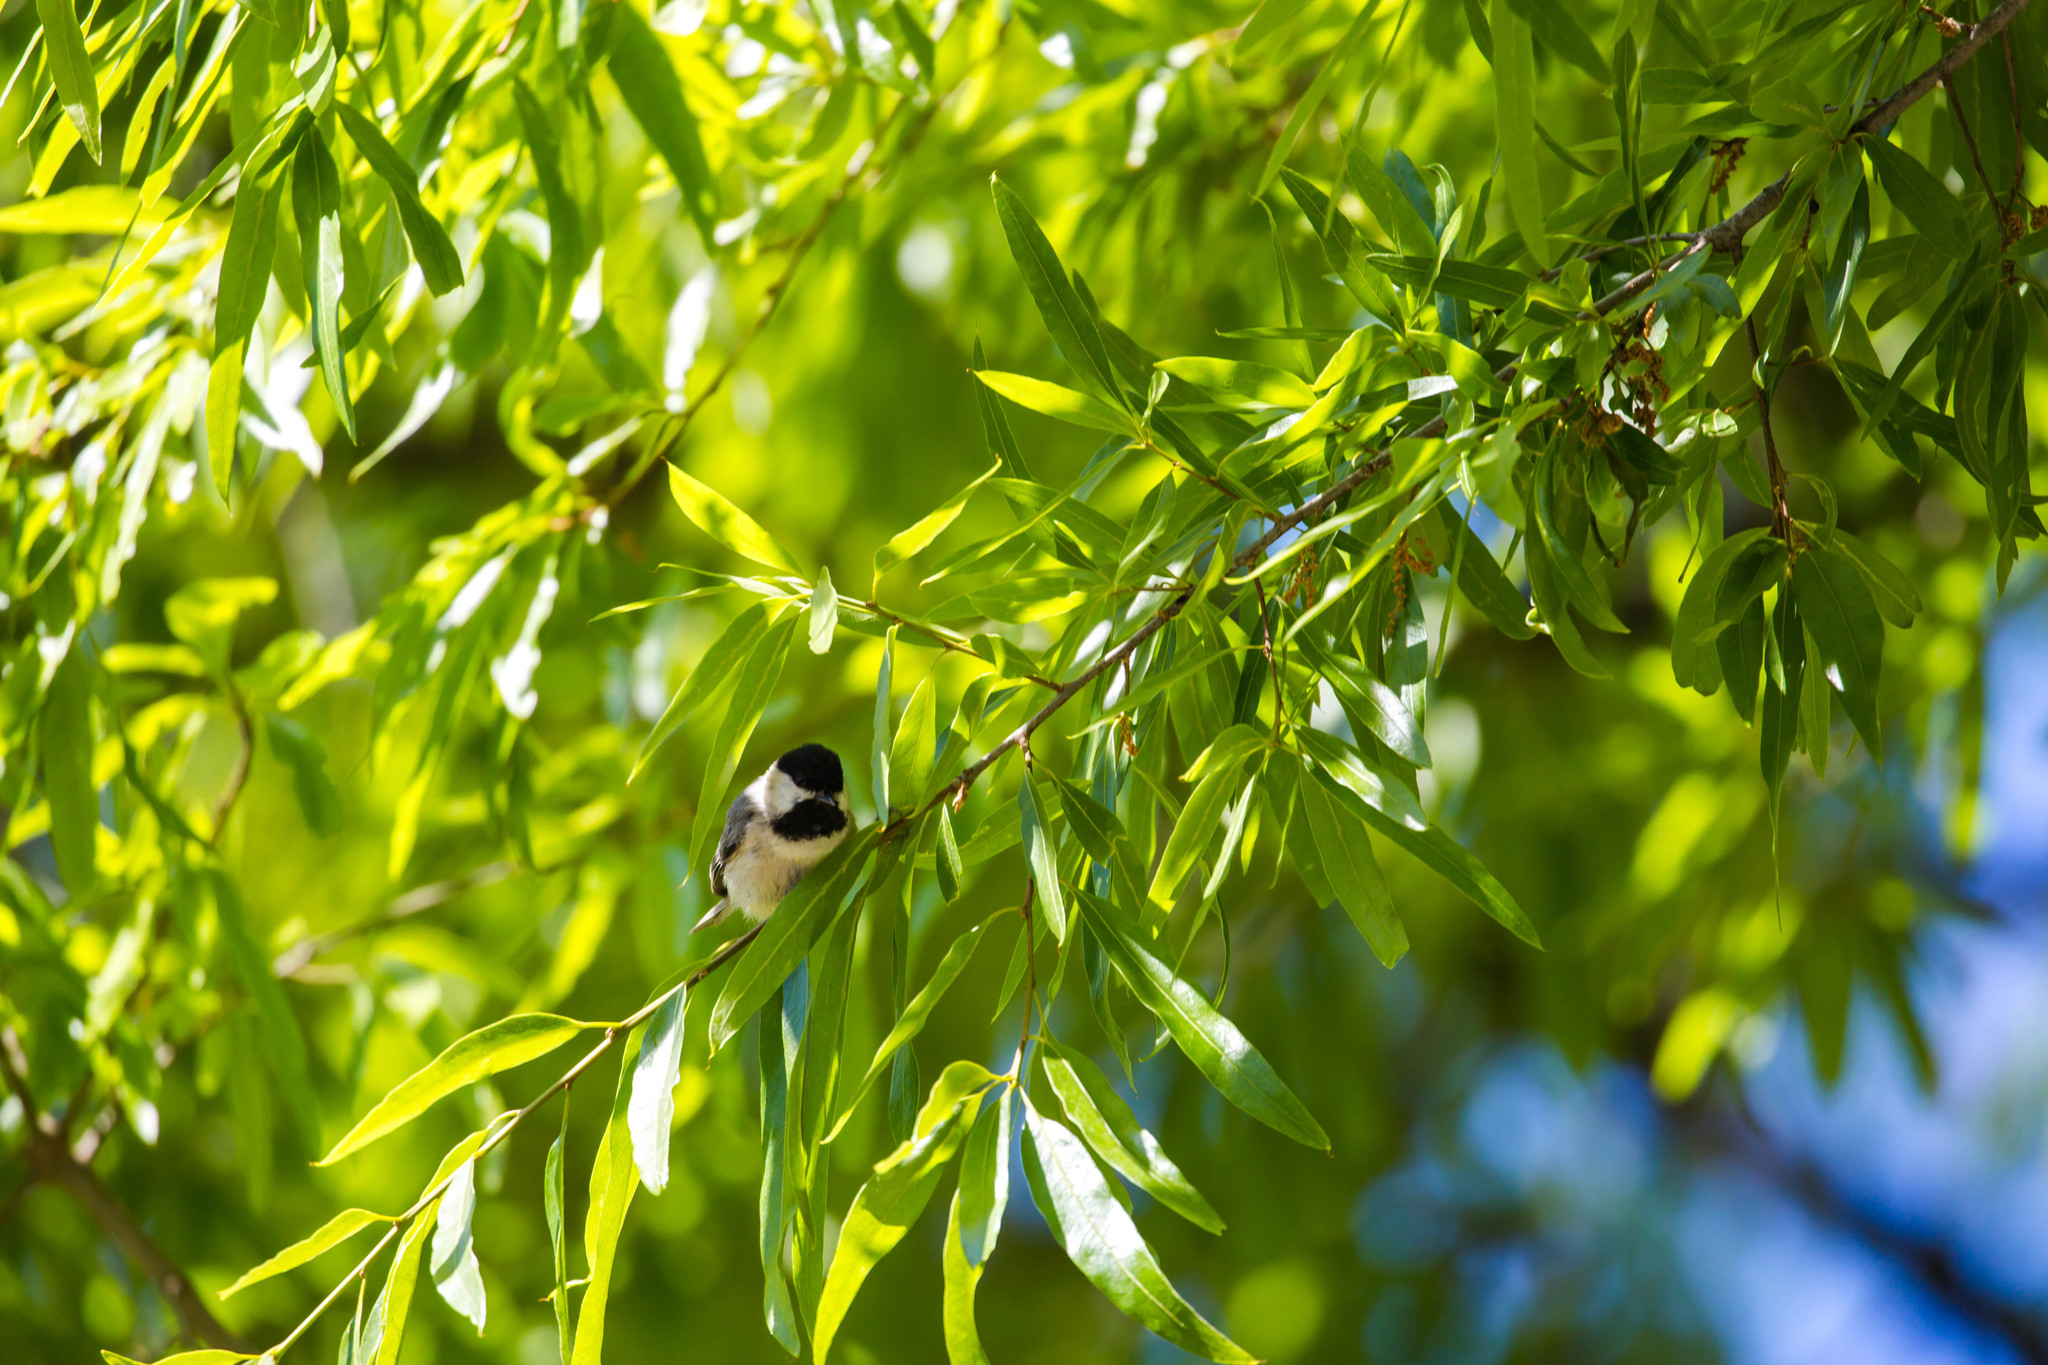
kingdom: Animalia
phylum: Chordata
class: Aves
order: Passeriformes
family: Paridae
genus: Poecile
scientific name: Poecile carolinensis
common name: Carolina chickadee
